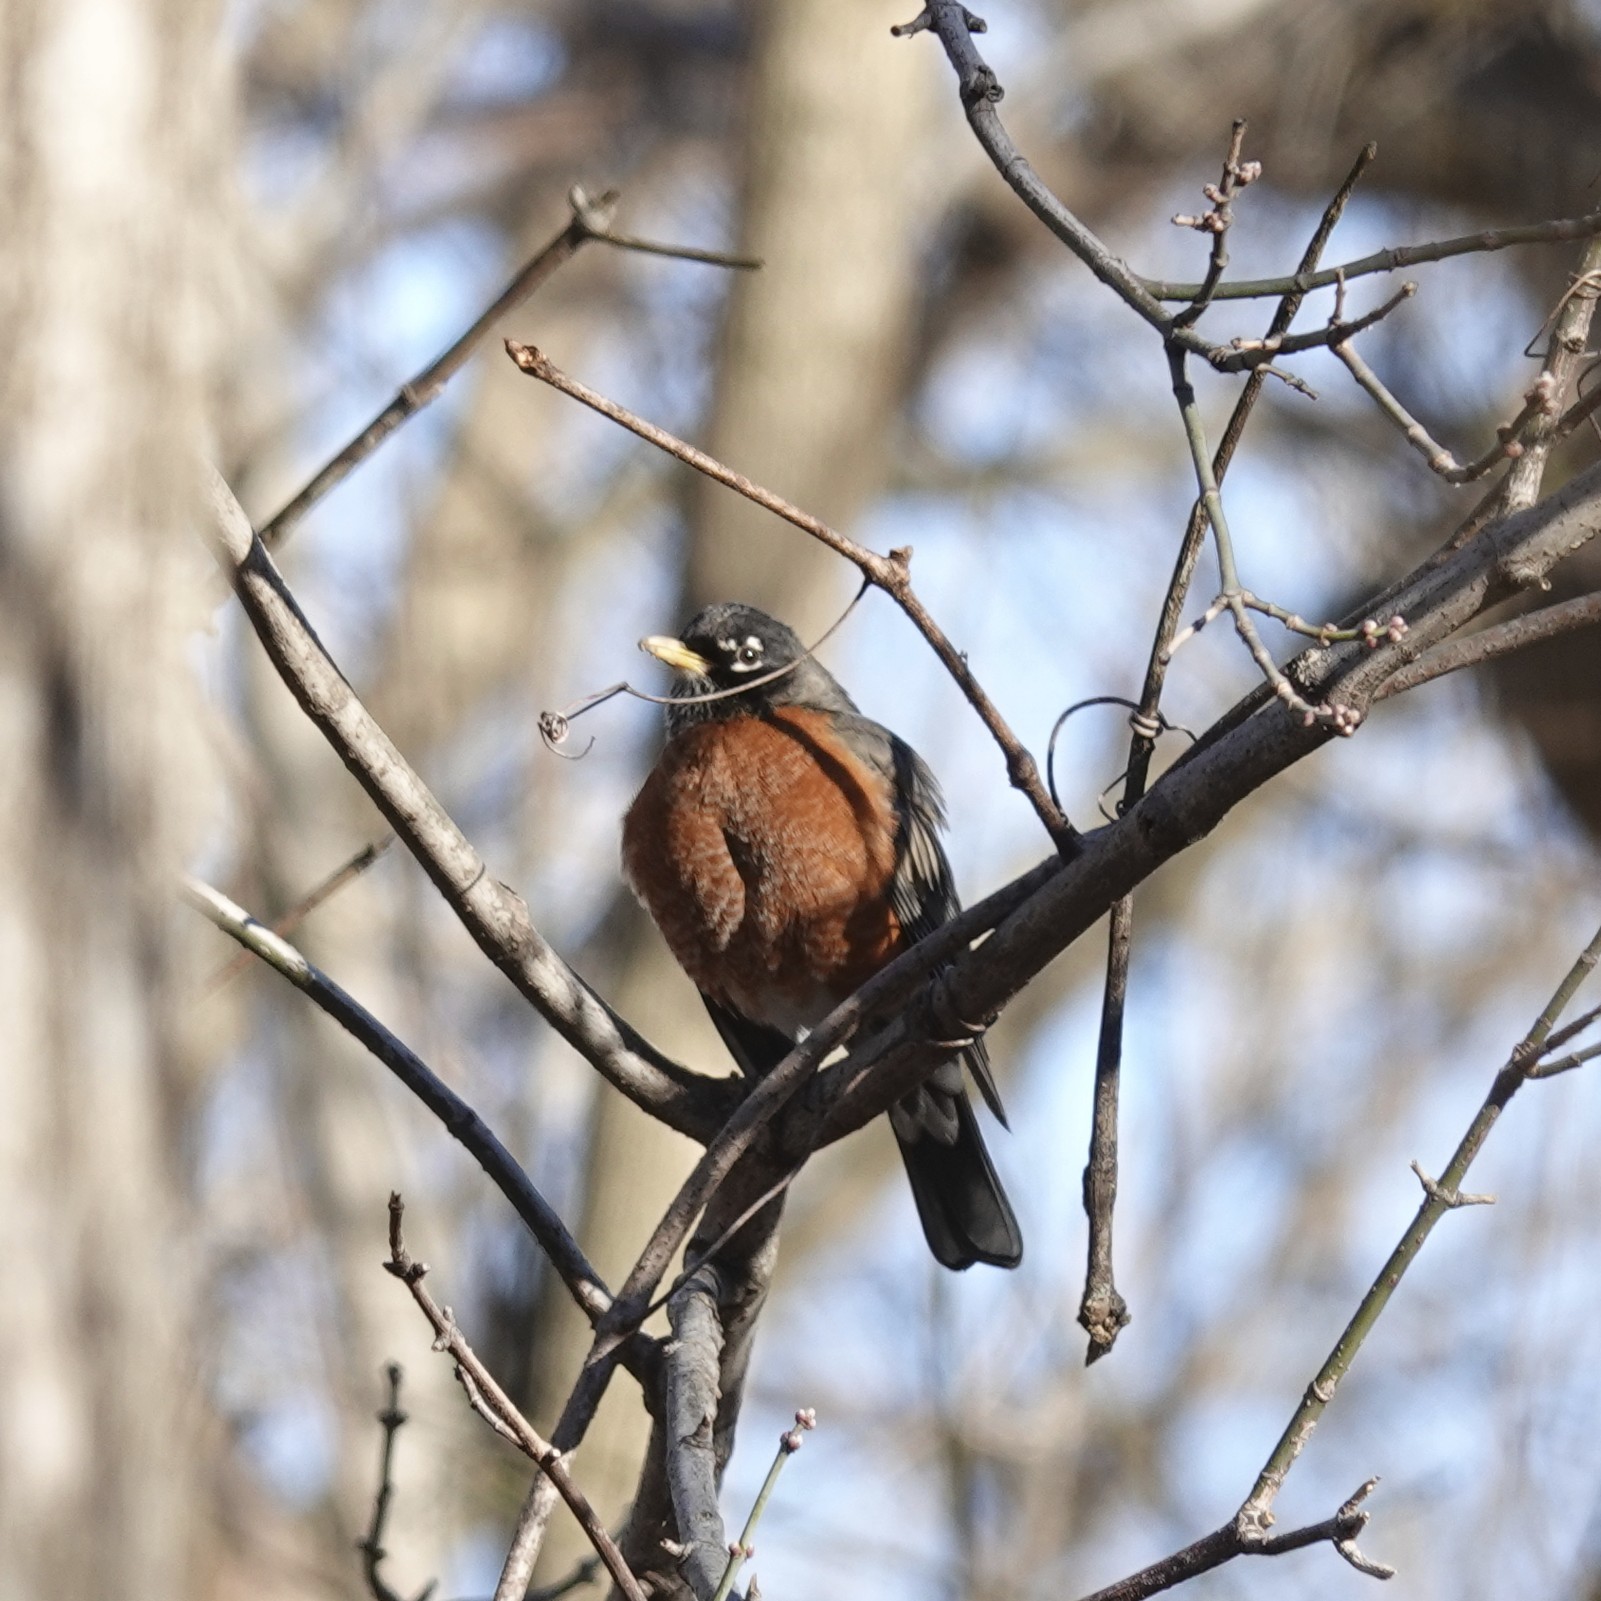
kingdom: Animalia
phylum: Chordata
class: Aves
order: Passeriformes
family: Turdidae
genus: Turdus
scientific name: Turdus migratorius
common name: American robin
